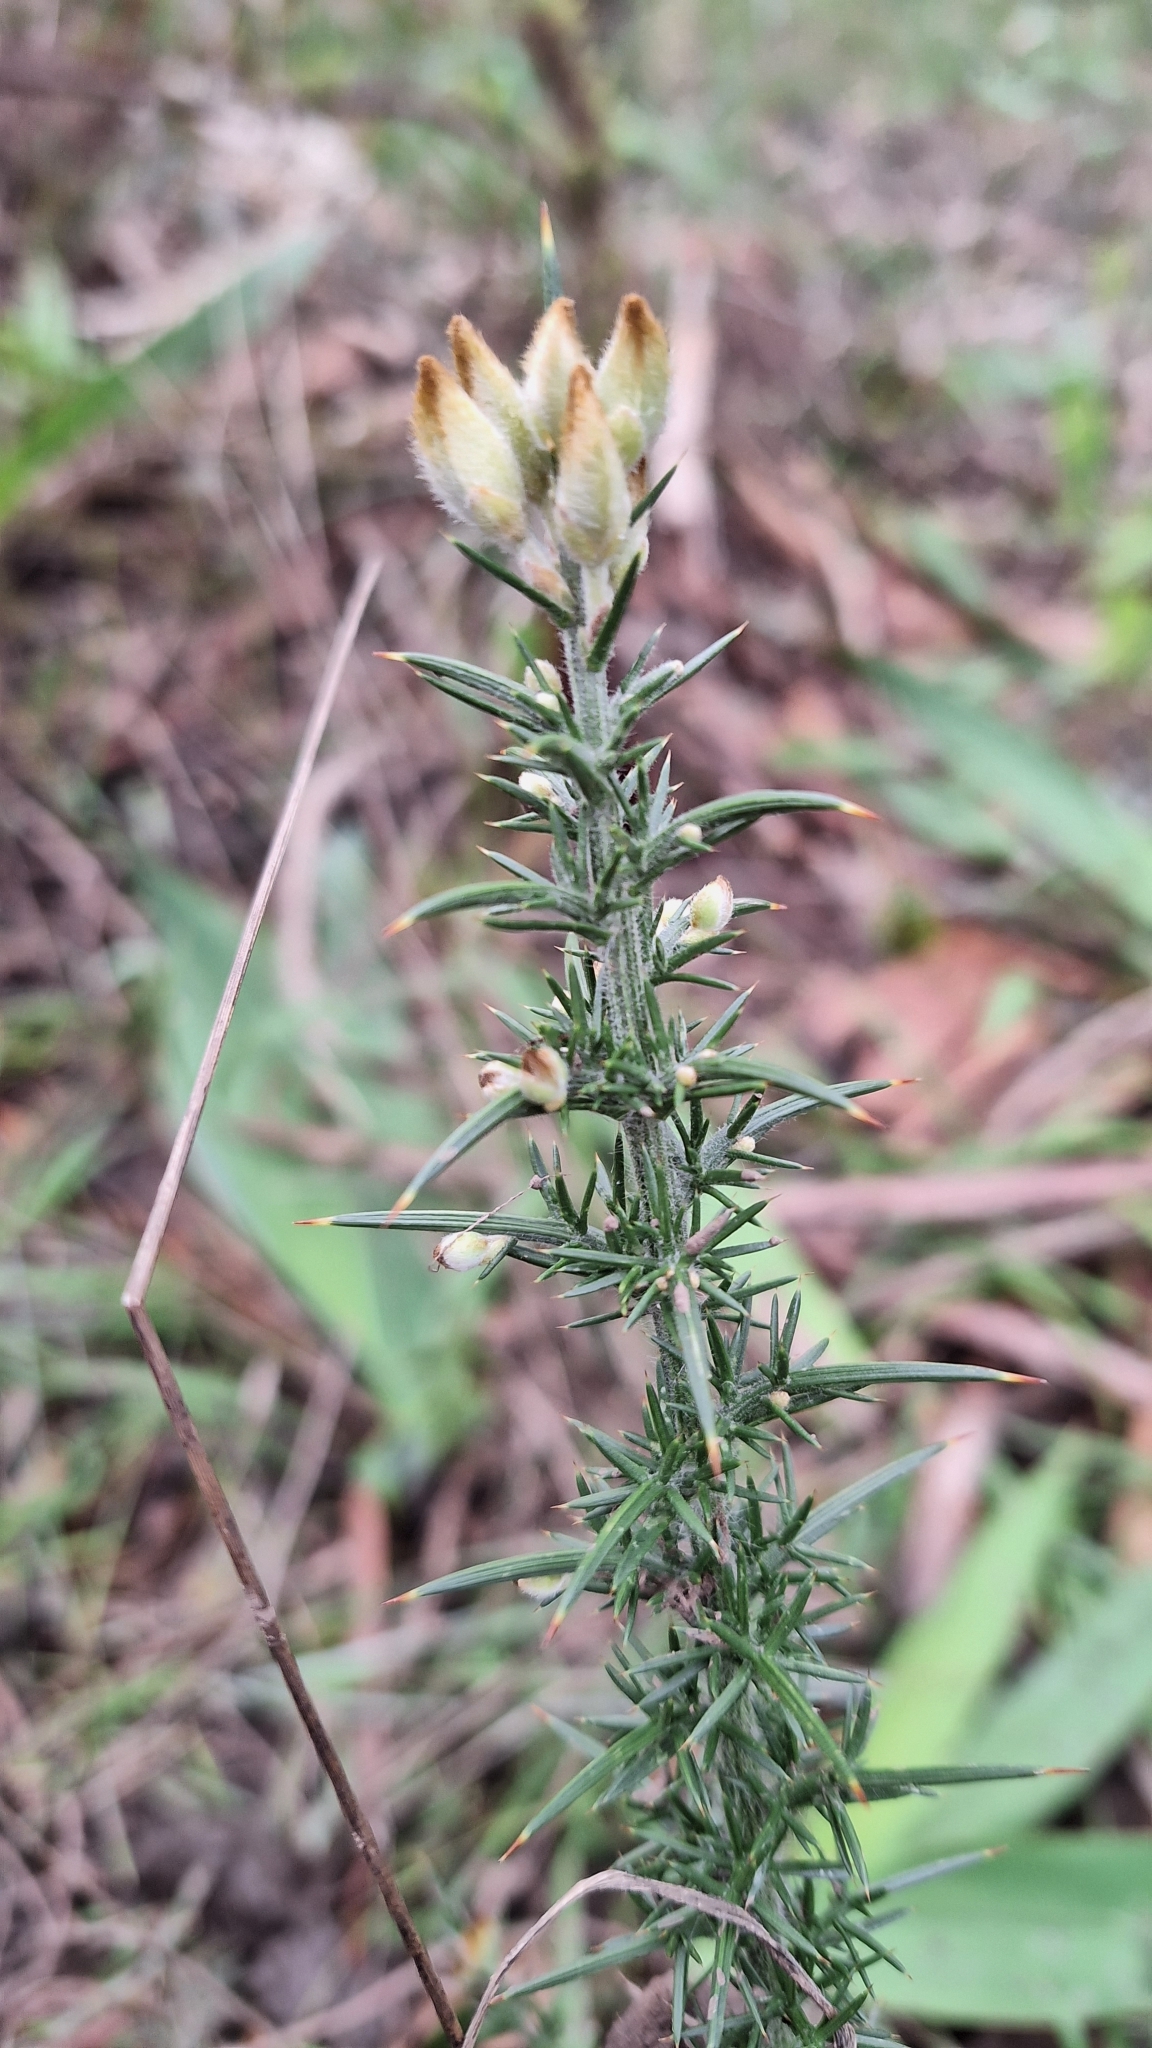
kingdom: Plantae
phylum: Tracheophyta
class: Magnoliopsida
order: Fabales
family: Fabaceae
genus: Ulex
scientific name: Ulex europaeus
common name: Common gorse
